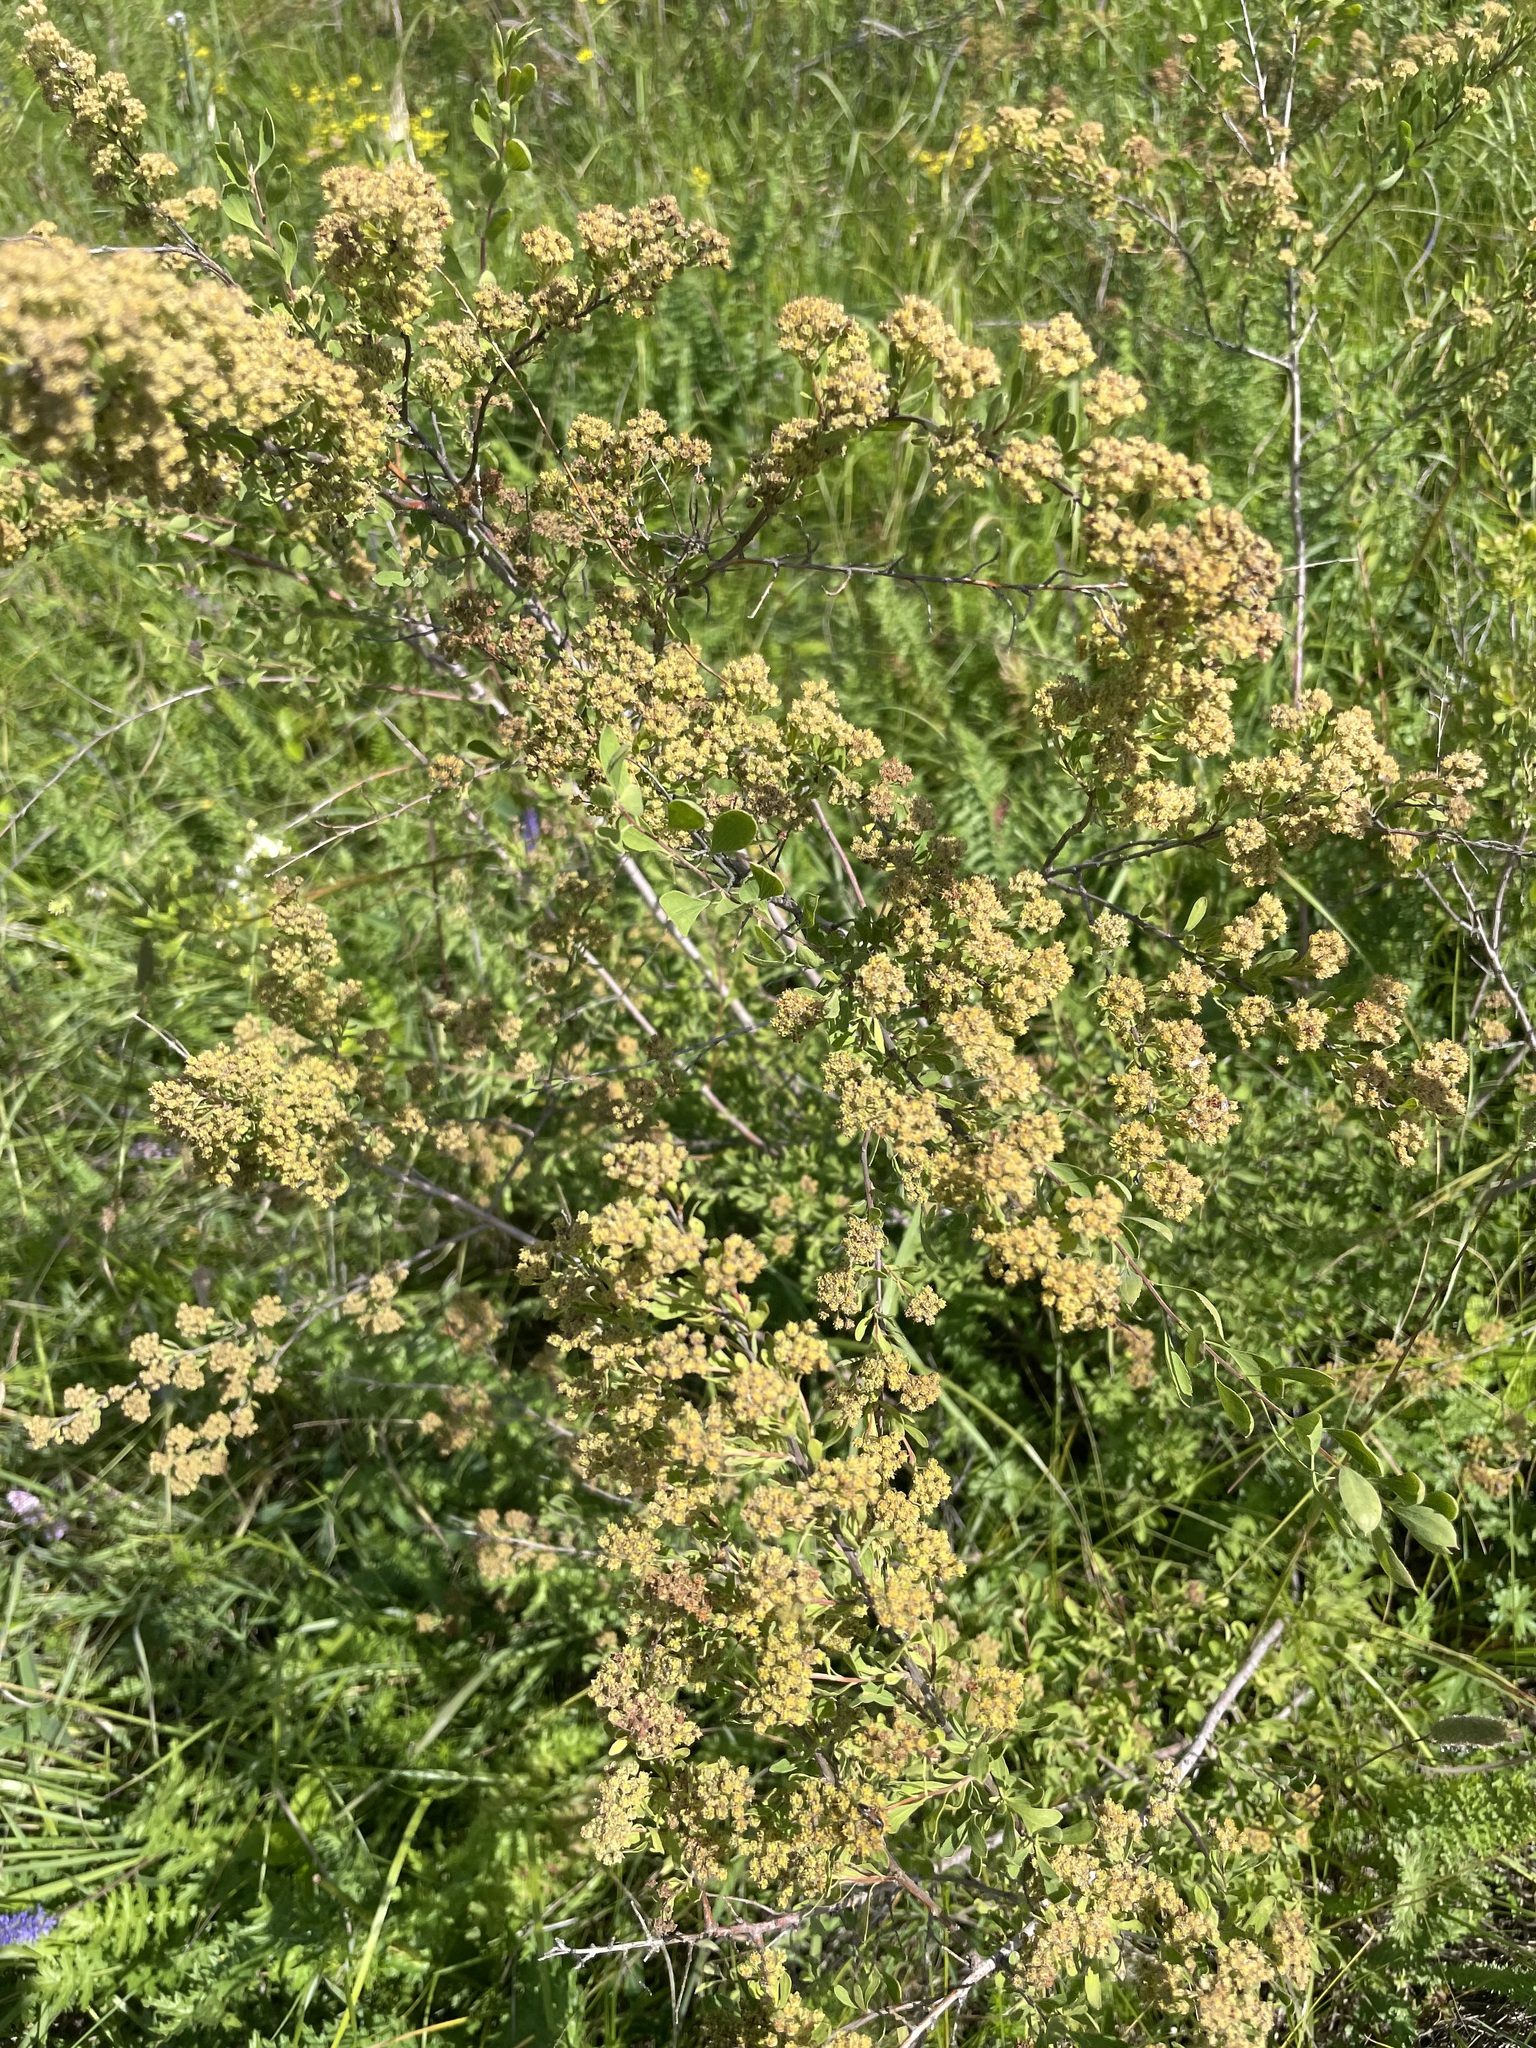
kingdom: Plantae
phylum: Tracheophyta
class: Magnoliopsida
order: Rosales
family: Rosaceae
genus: Spiraea
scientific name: Spiraea crenata
